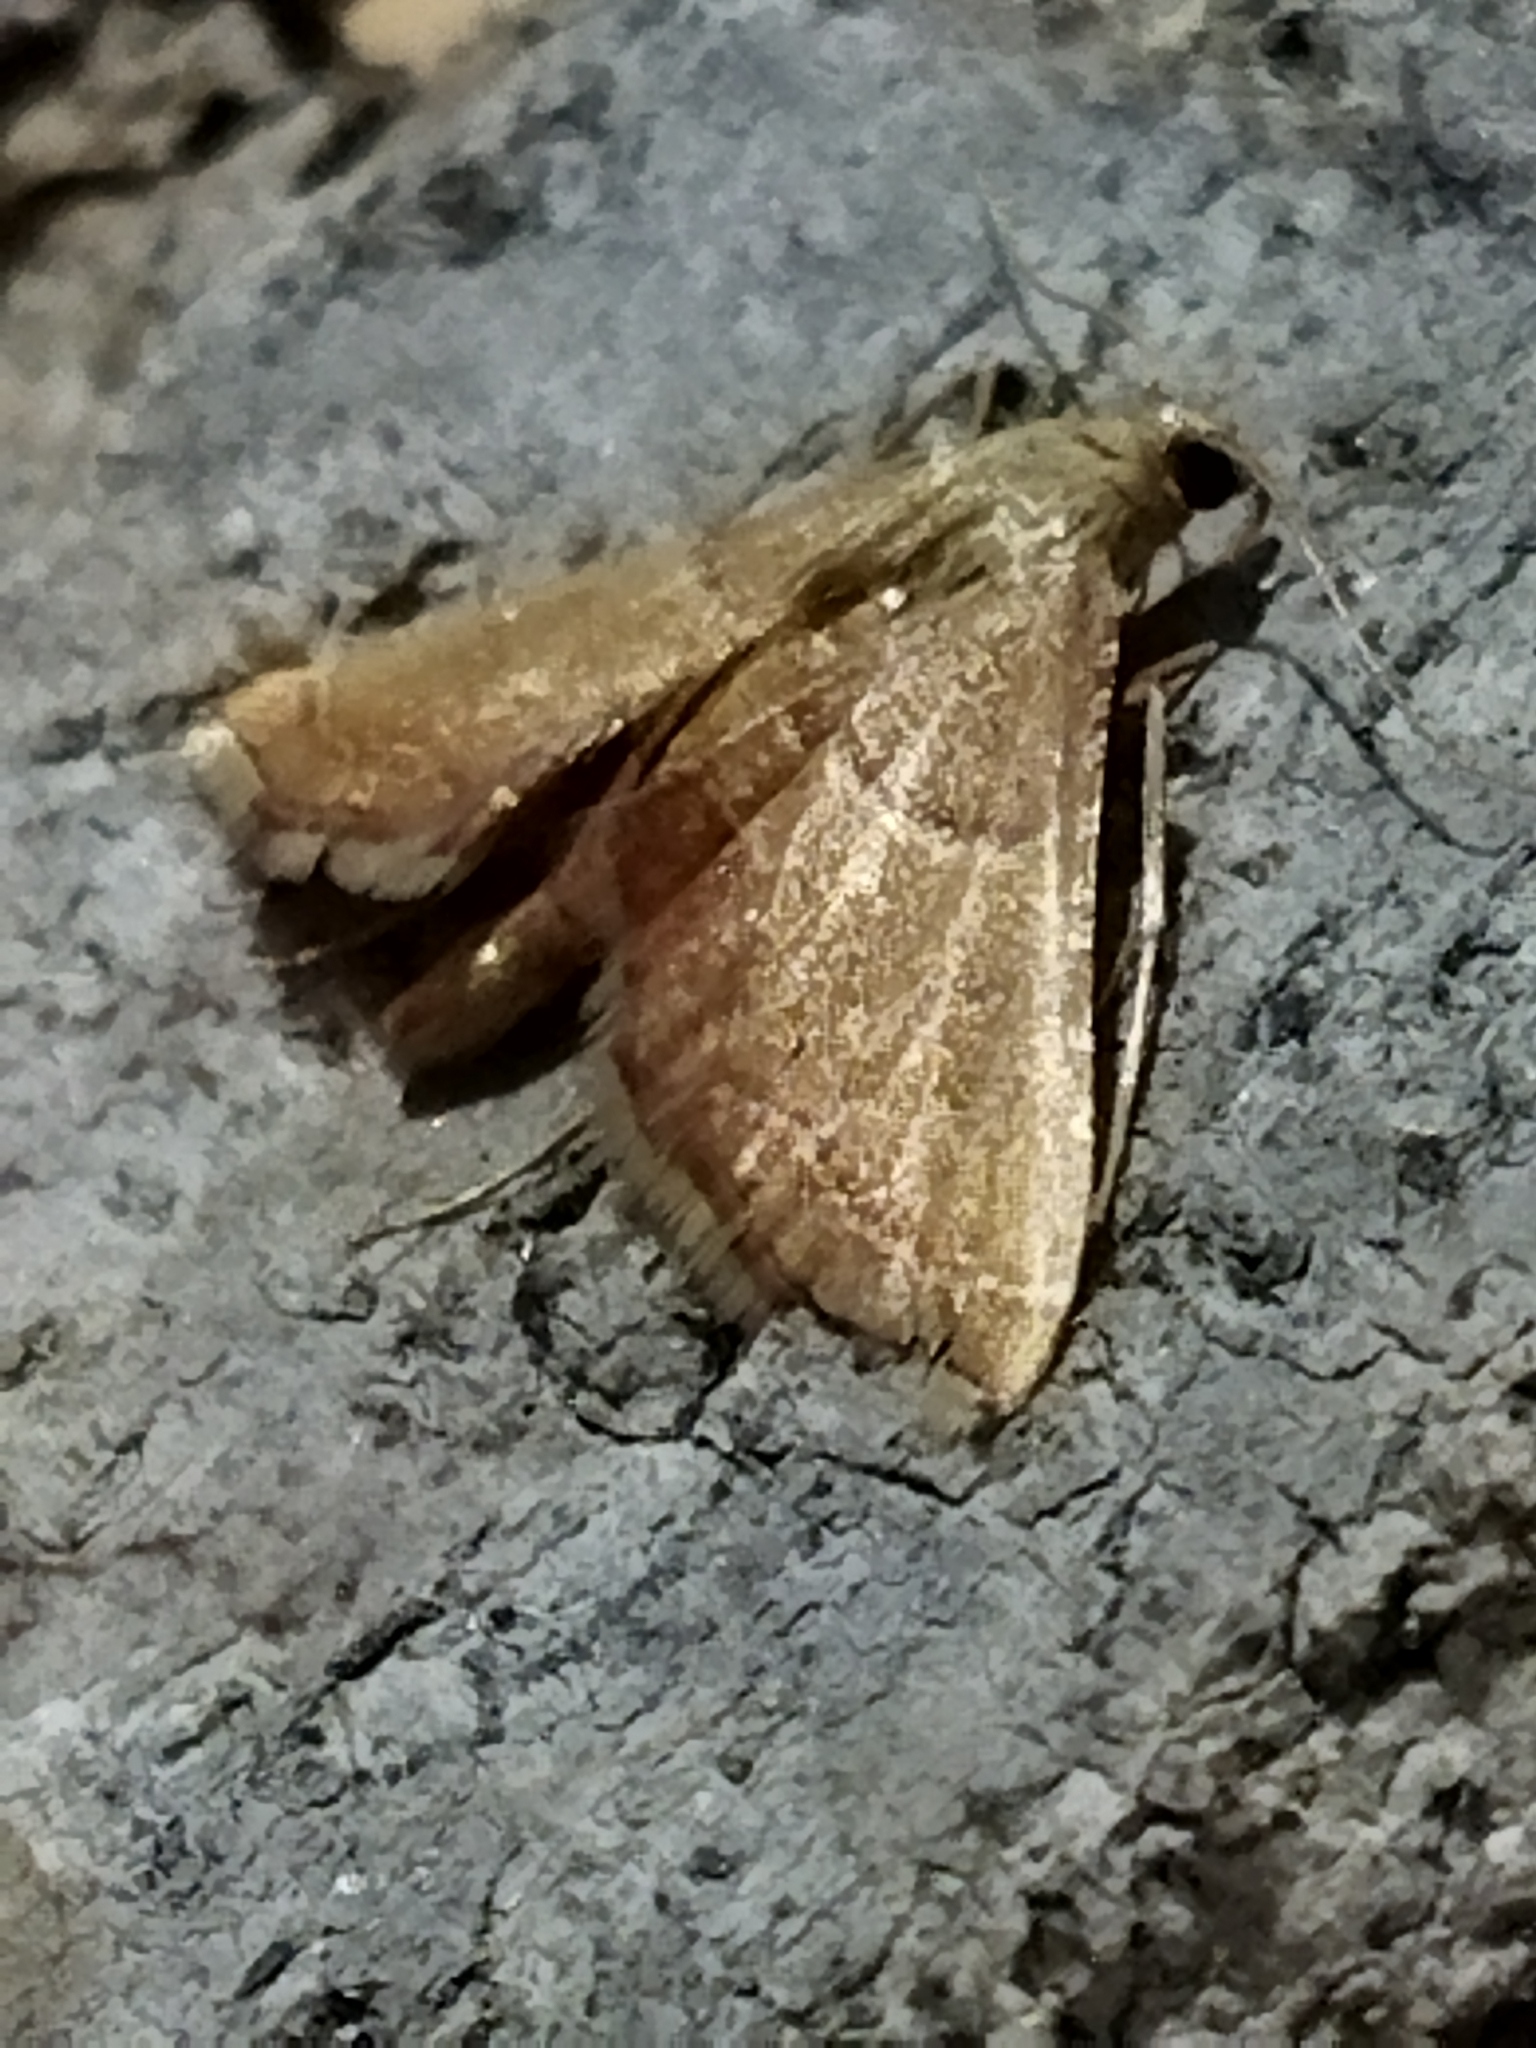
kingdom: Animalia
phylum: Arthropoda
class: Insecta
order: Lepidoptera
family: Pyralidae
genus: Endotricha
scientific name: Endotricha flammealis
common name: Rosy tabby
